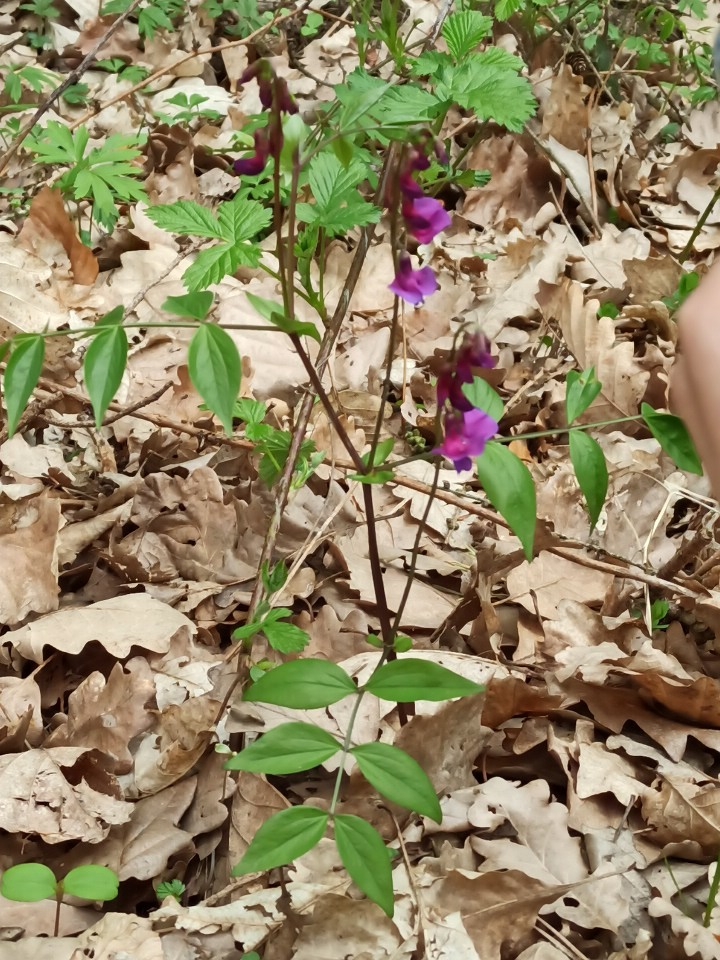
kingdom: Plantae
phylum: Tracheophyta
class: Magnoliopsida
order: Fabales
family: Fabaceae
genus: Lathyrus
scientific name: Lathyrus vernus
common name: Spring pea
